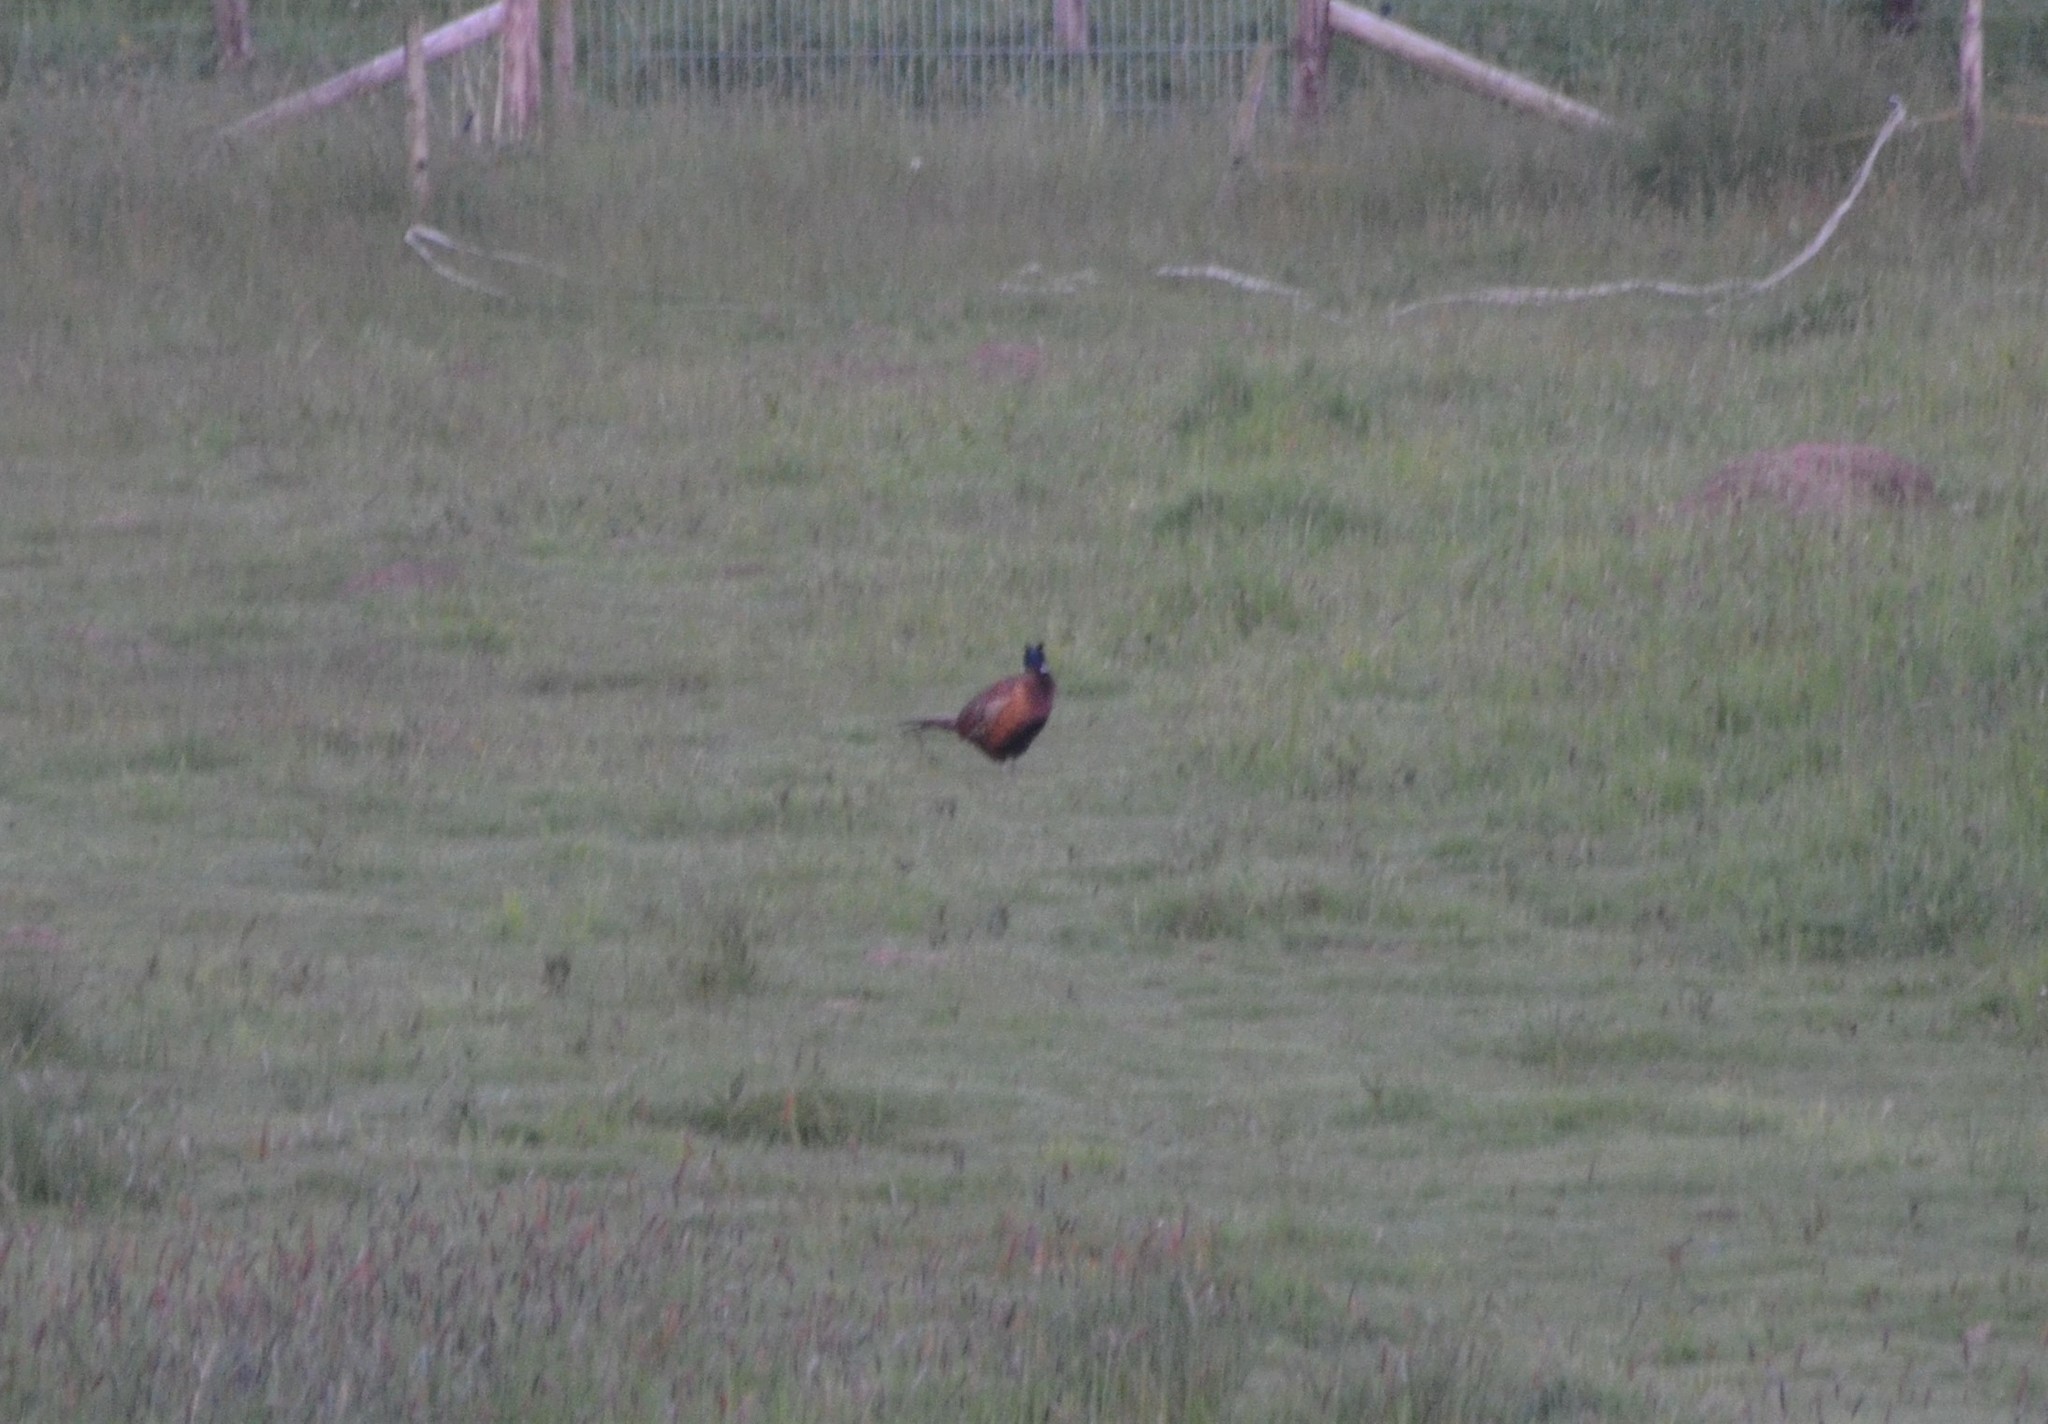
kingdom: Animalia
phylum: Chordata
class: Aves
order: Galliformes
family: Phasianidae
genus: Phasianus
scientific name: Phasianus colchicus
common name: Common pheasant
